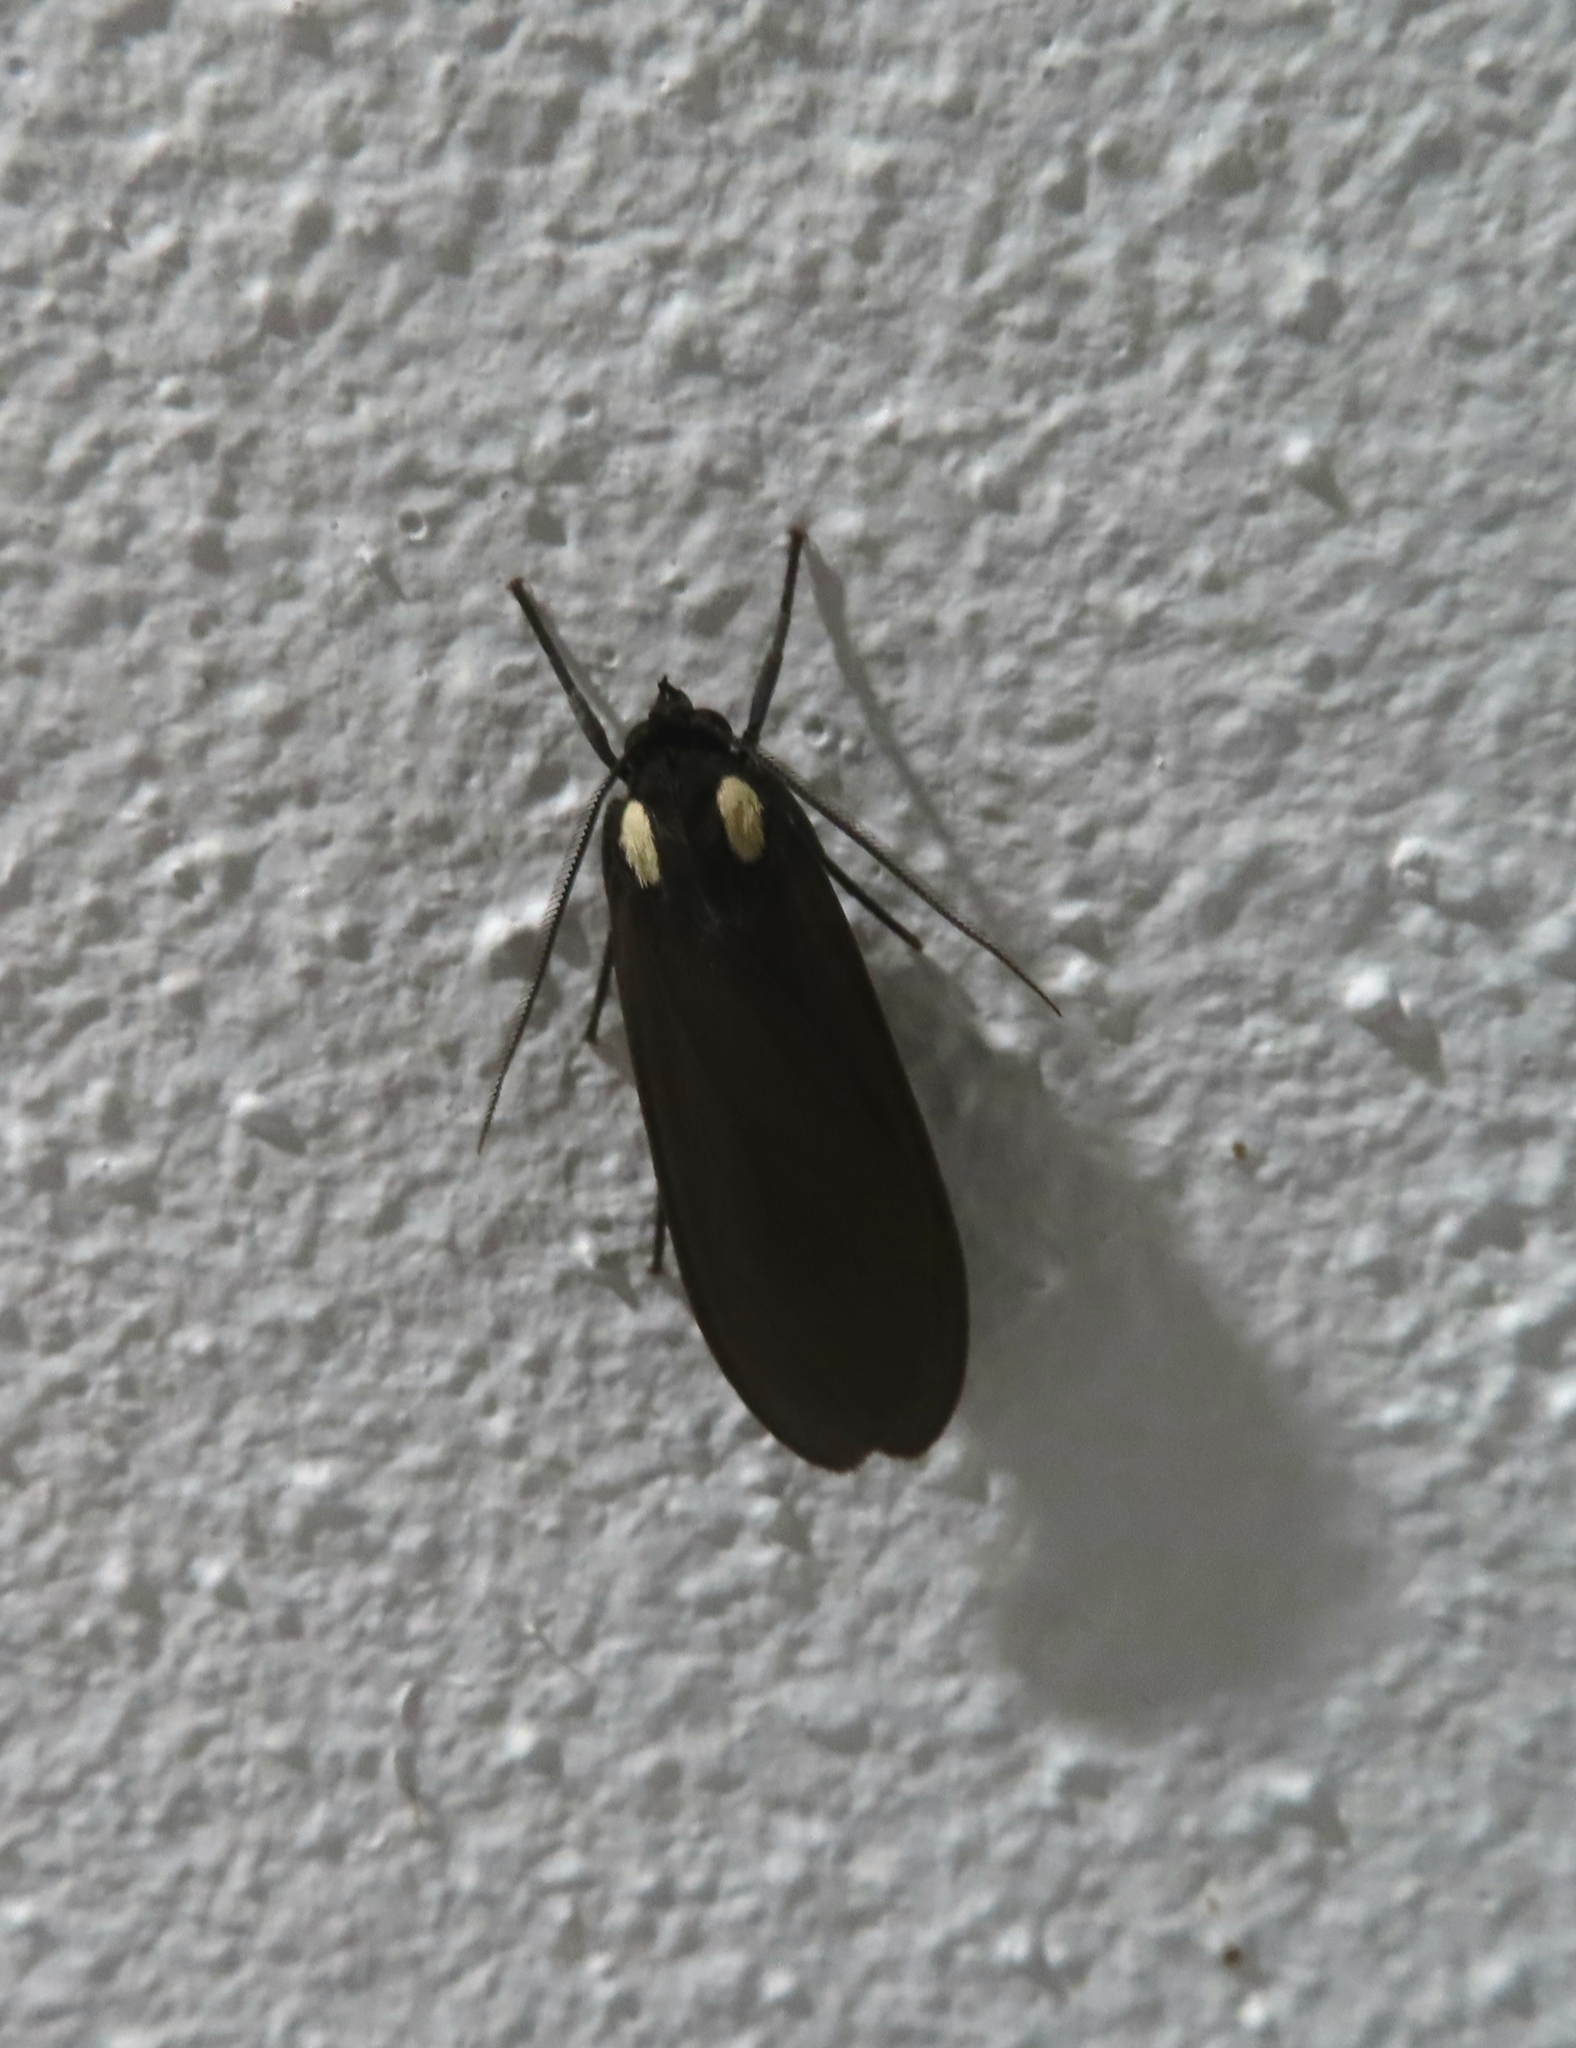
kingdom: Animalia
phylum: Arthropoda
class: Insecta
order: Lepidoptera
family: Erebidae
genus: Opharus
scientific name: Opharus bimaculata
